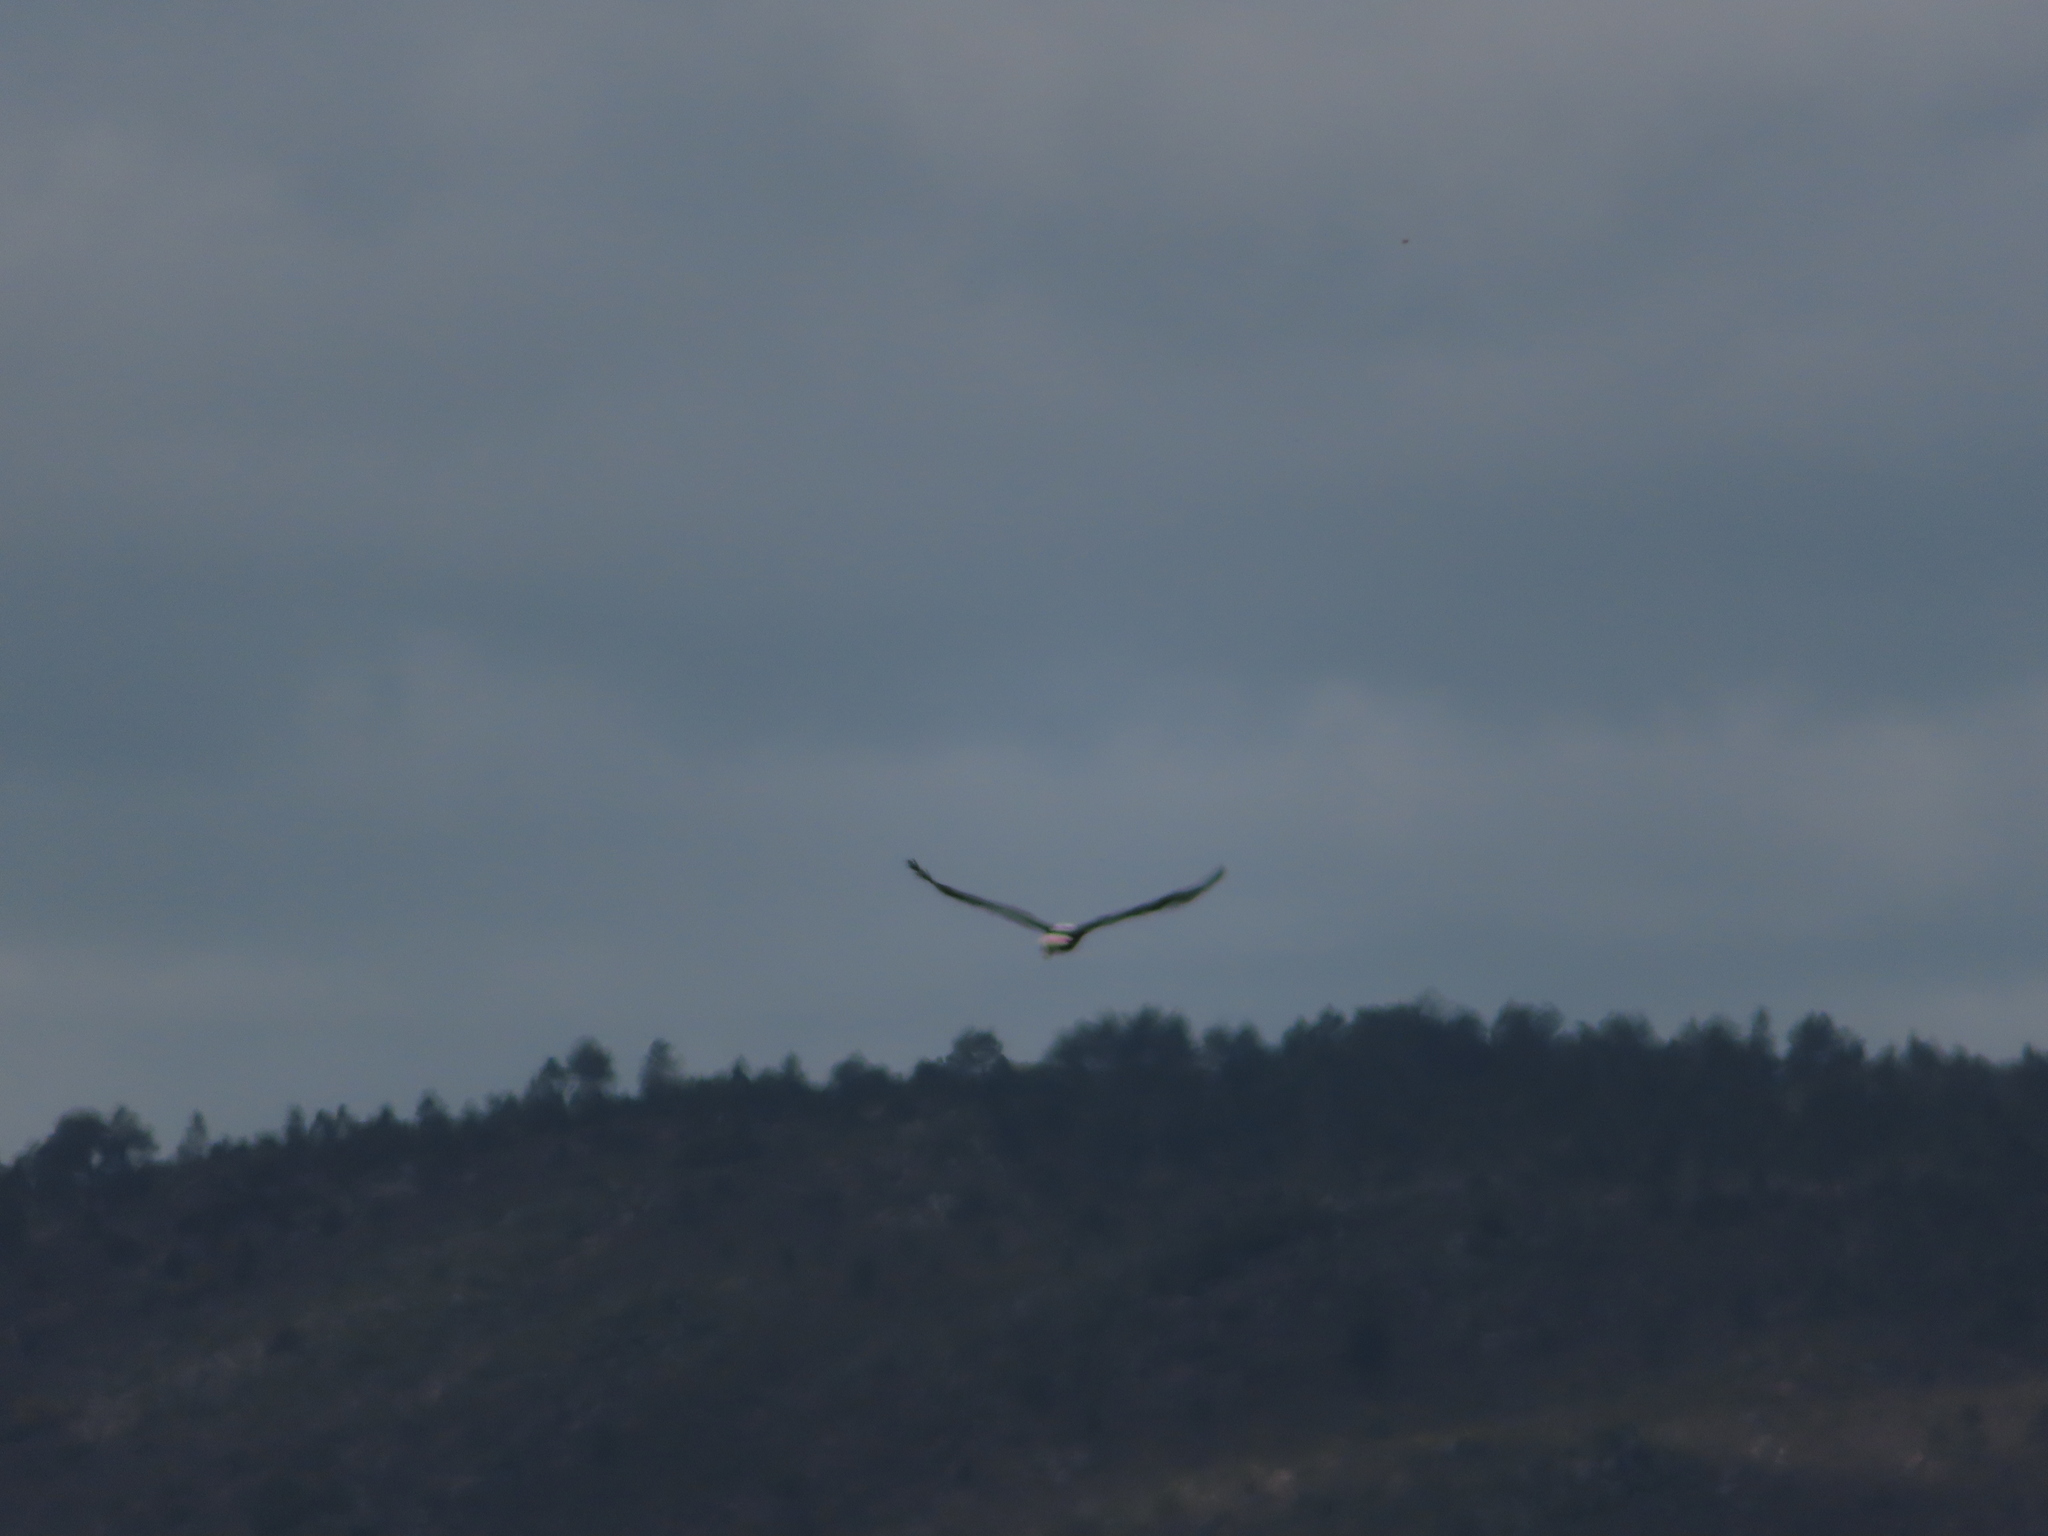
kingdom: Animalia
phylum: Chordata
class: Aves
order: Accipitriformes
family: Accipitridae
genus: Haliaeetus
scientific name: Haliaeetus vocifer
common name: African fish eagle
